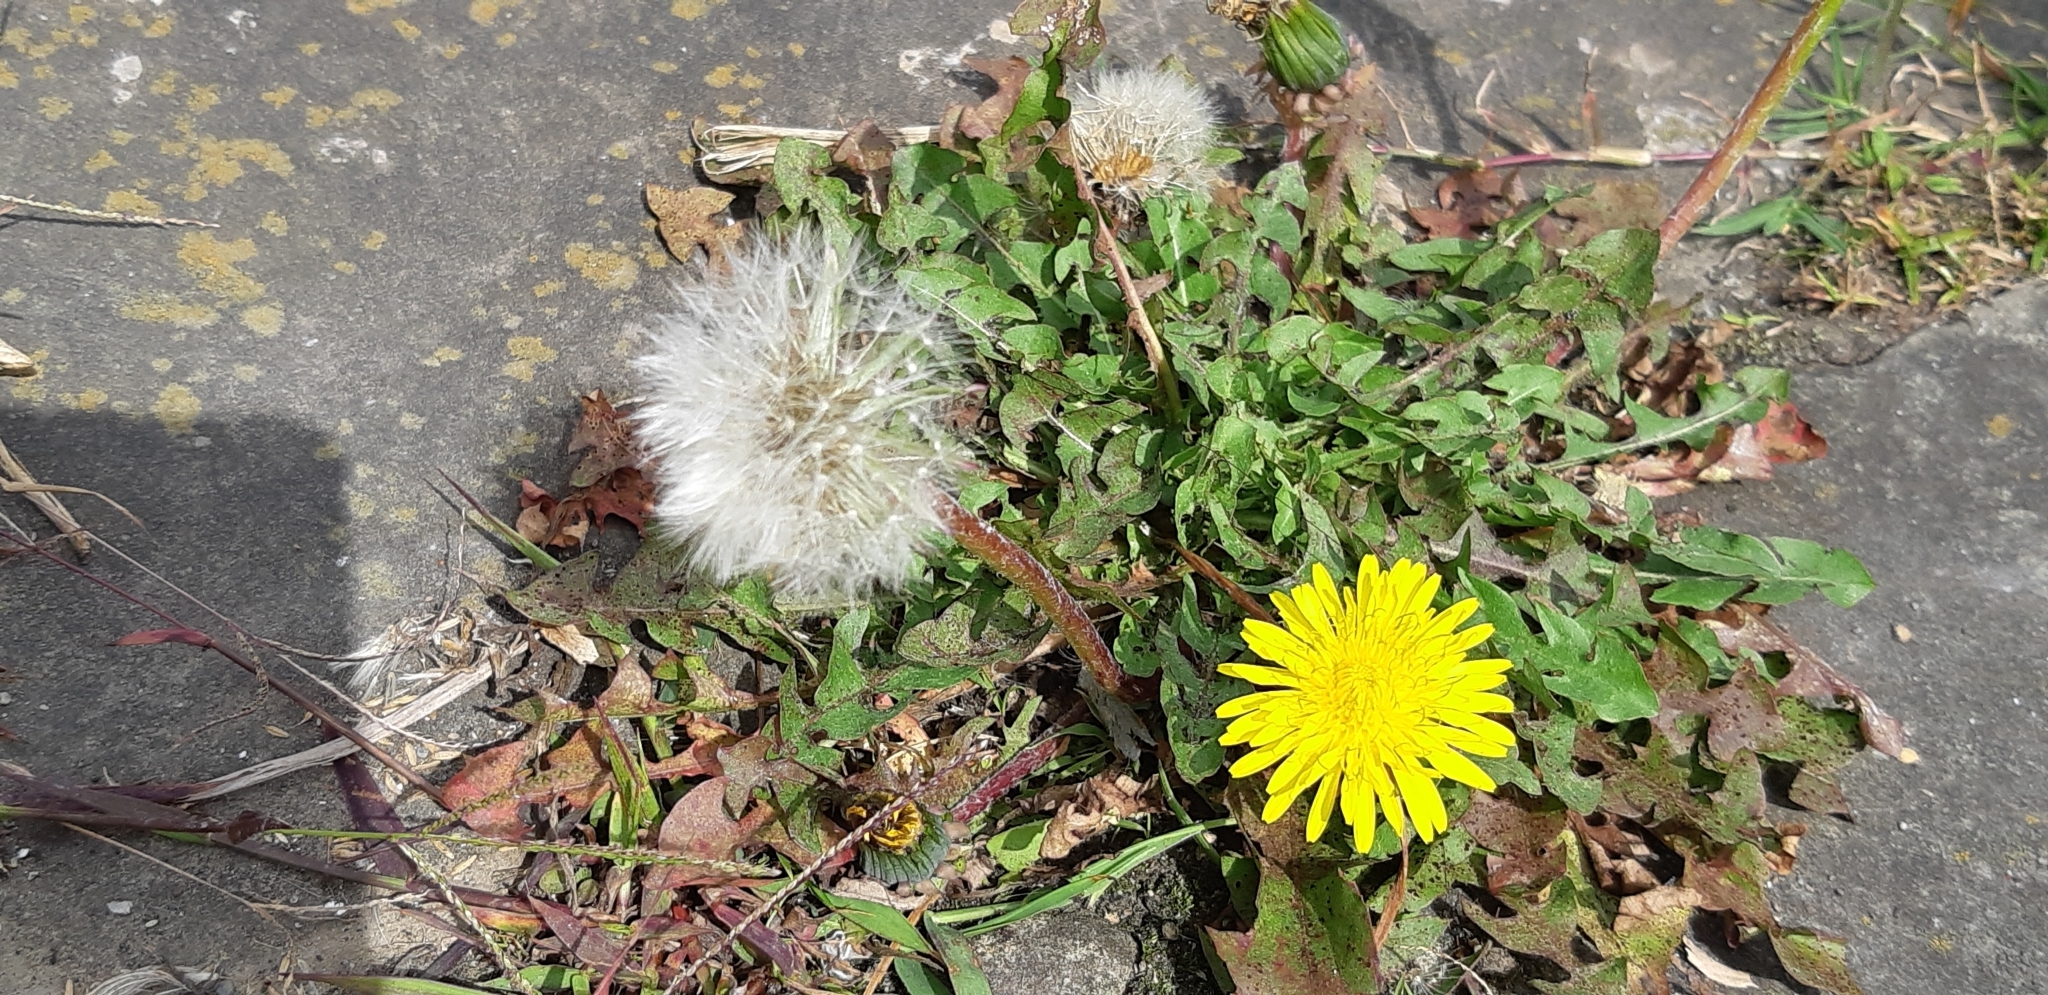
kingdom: Plantae
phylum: Tracheophyta
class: Magnoliopsida
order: Asterales
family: Asteraceae
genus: Taraxacum
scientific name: Taraxacum officinale
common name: Common dandelion
